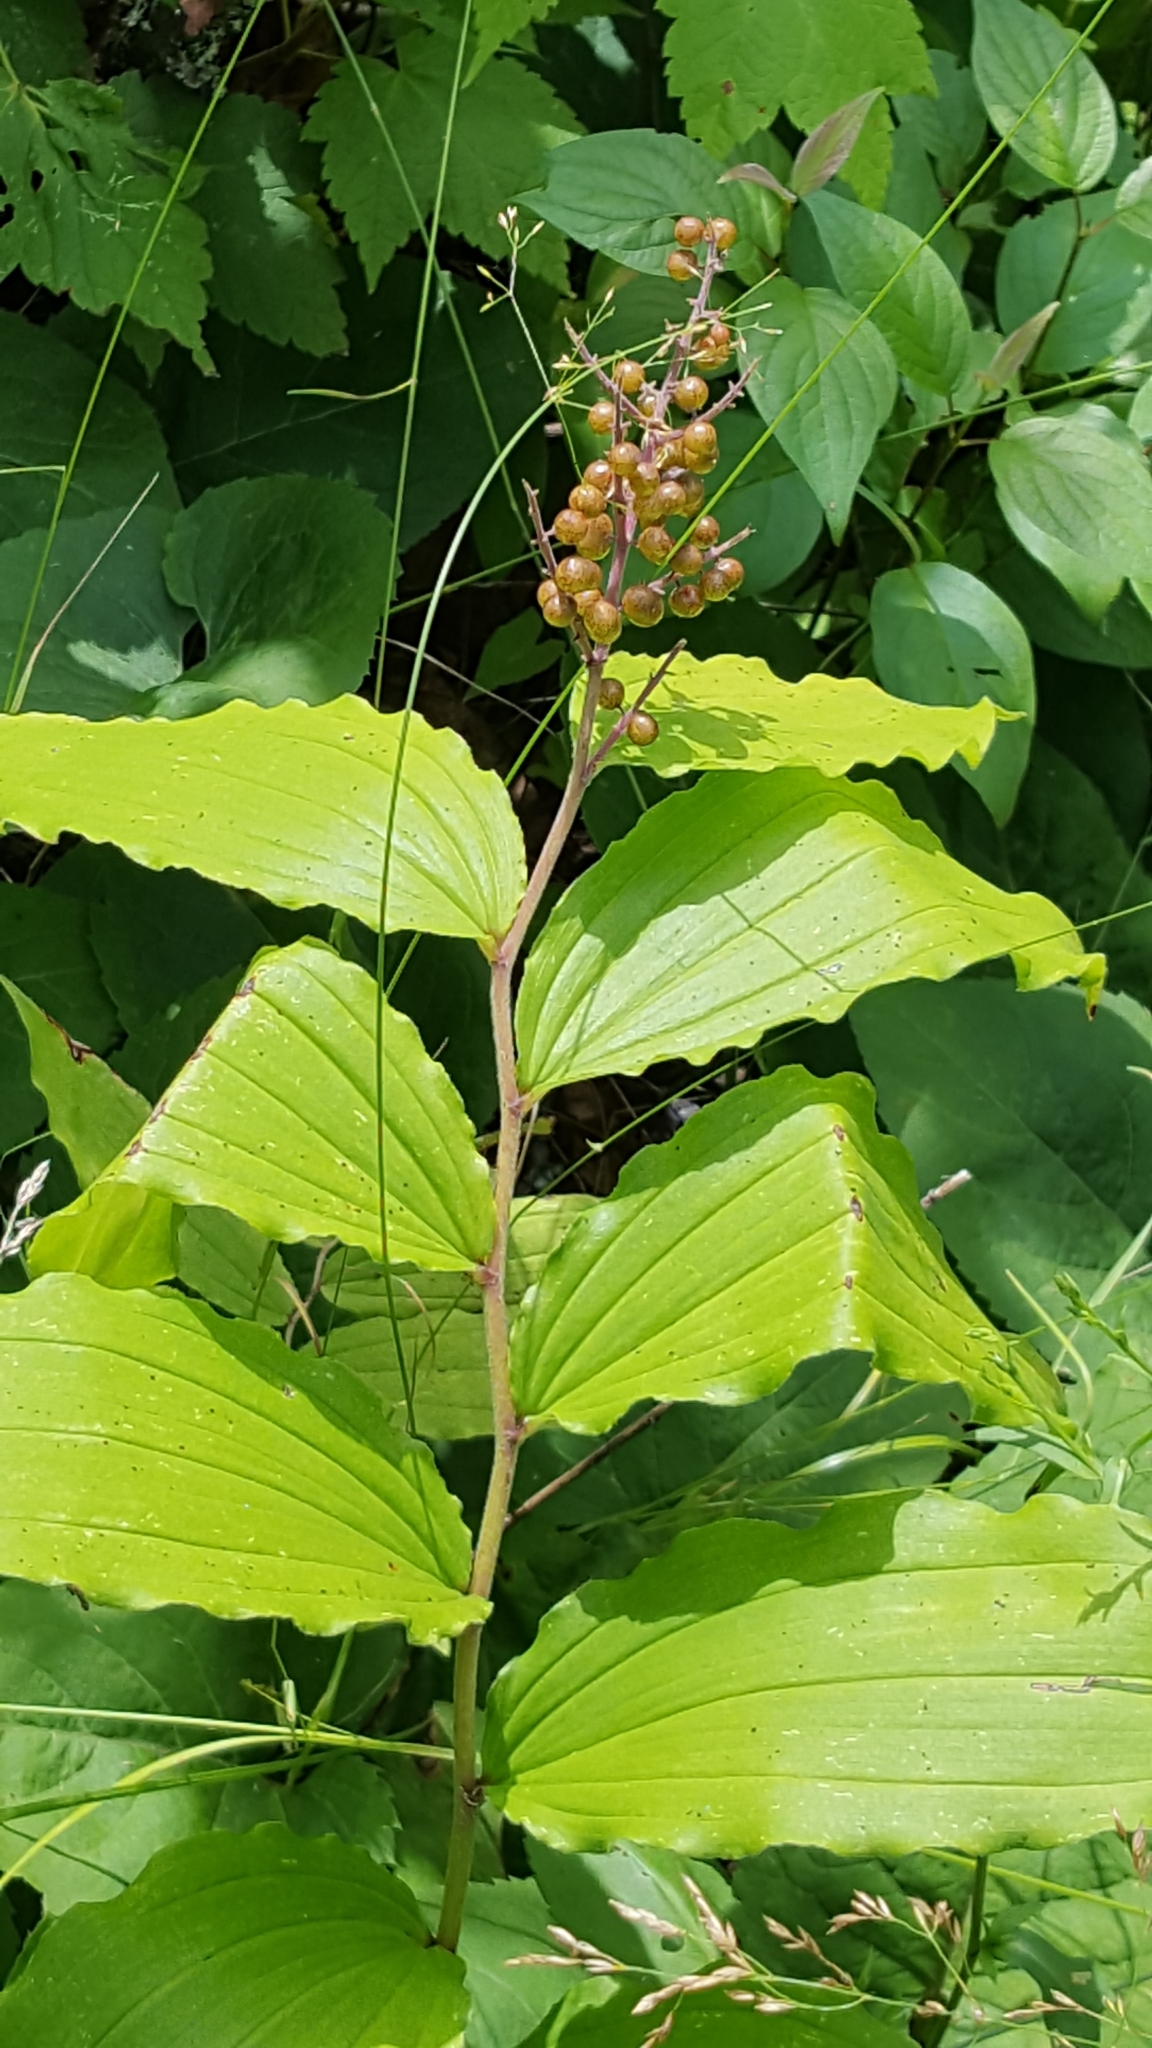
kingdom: Plantae
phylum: Tracheophyta
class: Liliopsida
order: Asparagales
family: Asparagaceae
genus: Maianthemum
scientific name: Maianthemum racemosum
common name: False spikenard
